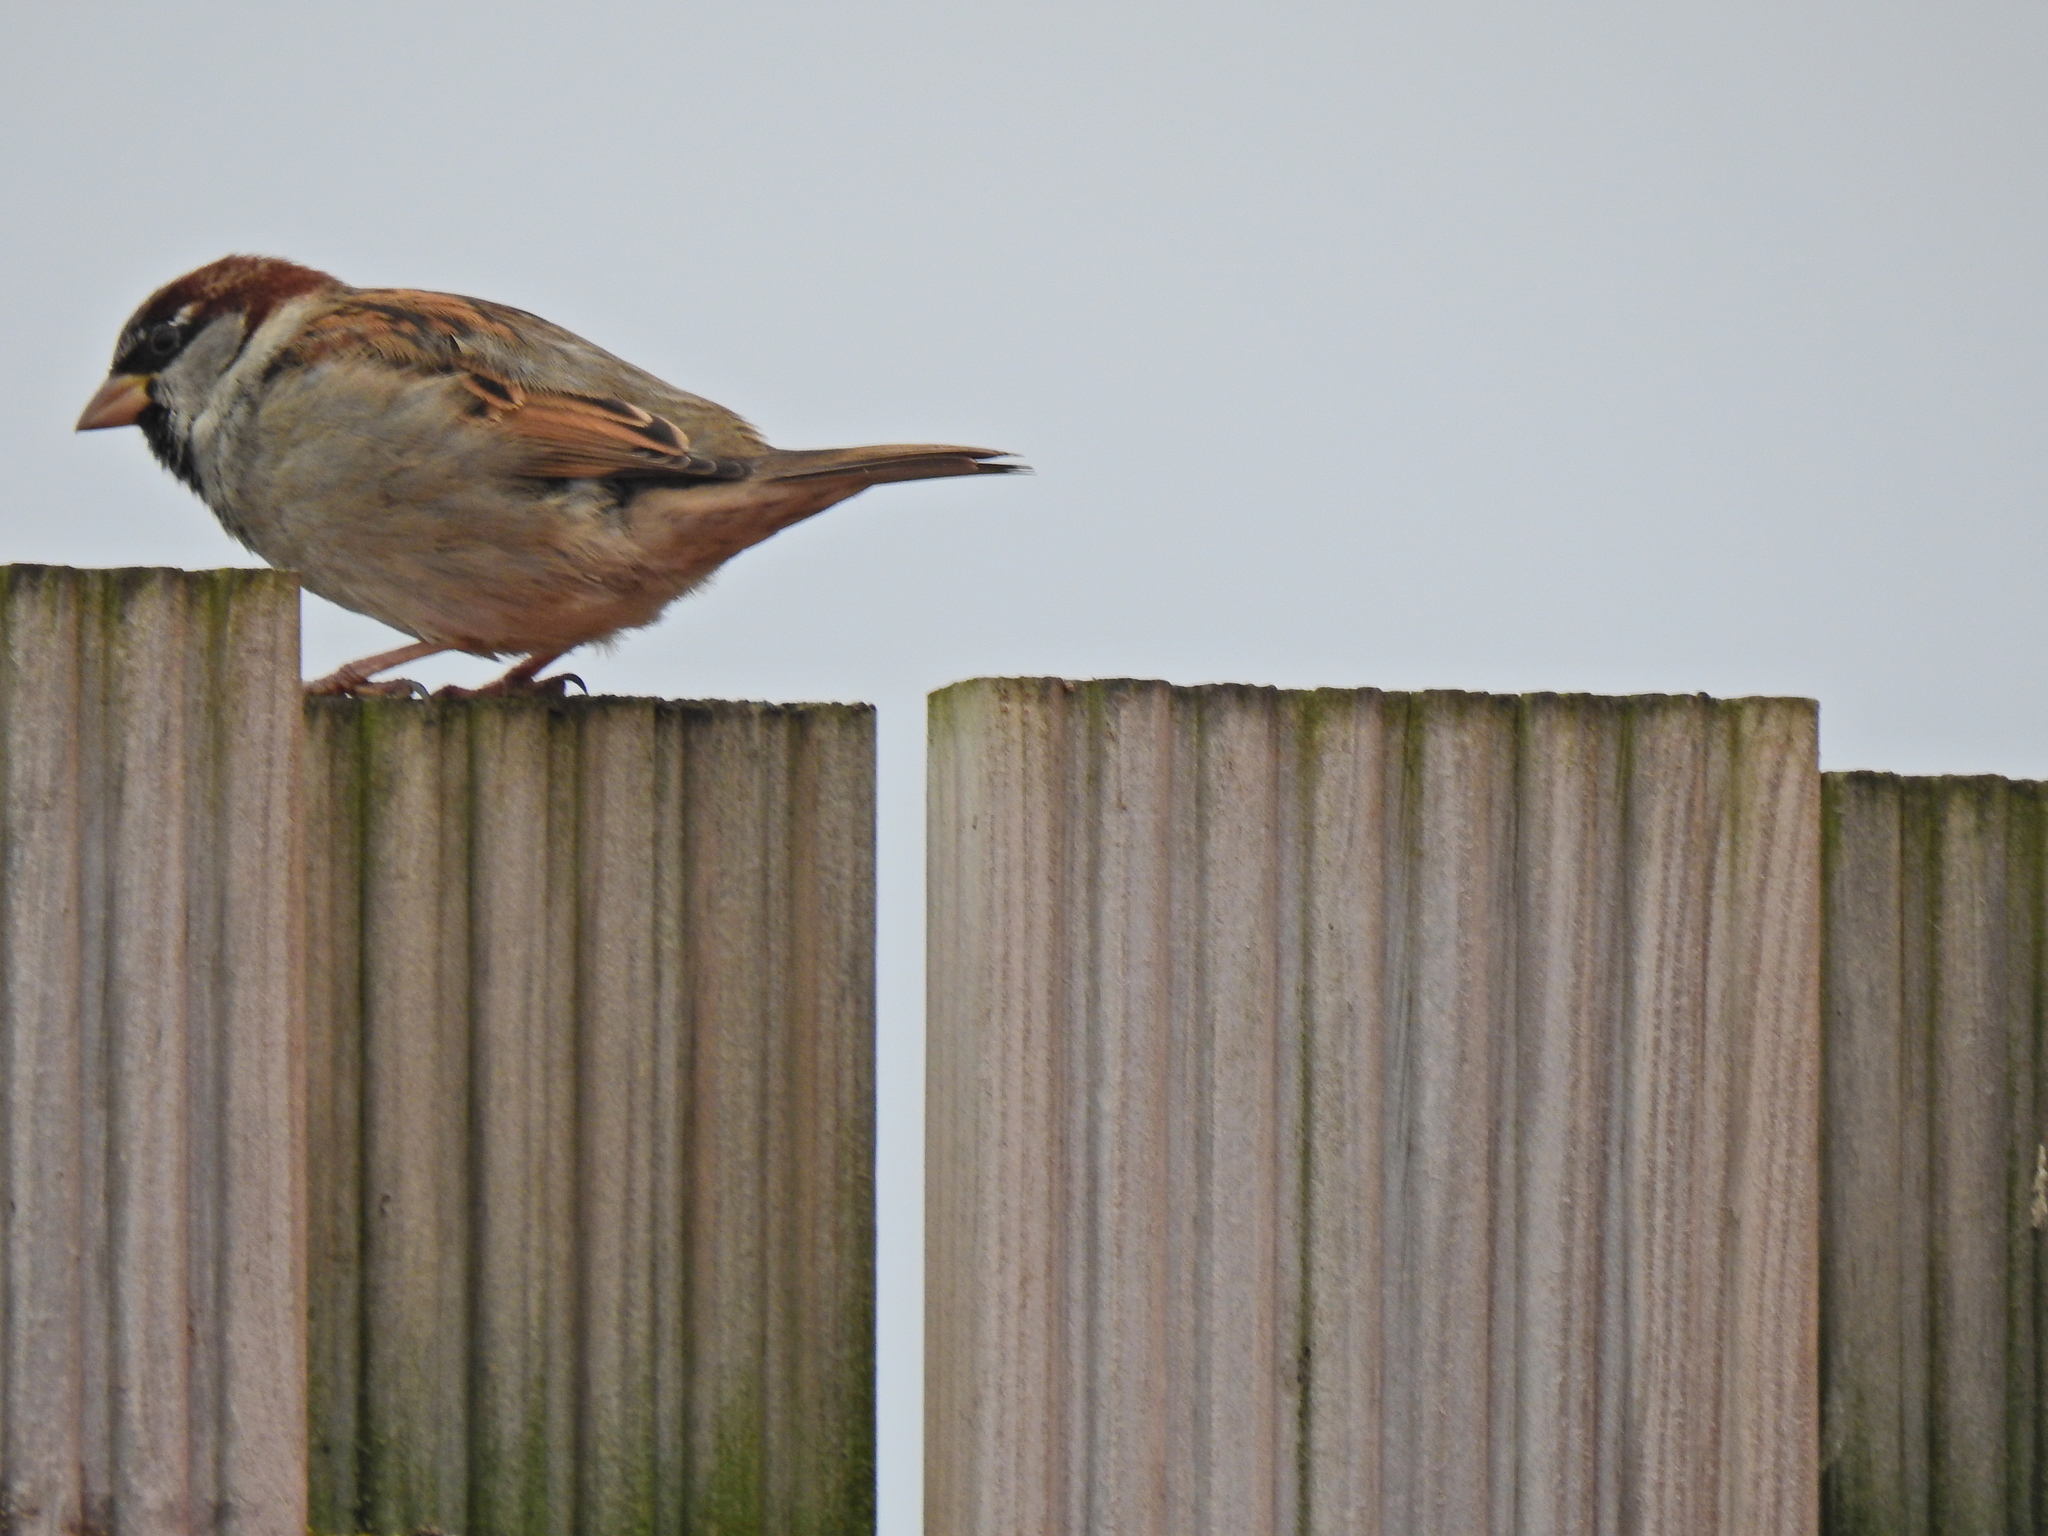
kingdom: Animalia
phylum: Chordata
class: Aves
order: Passeriformes
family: Passeridae
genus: Passer
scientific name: Passer domesticus
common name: House sparrow
